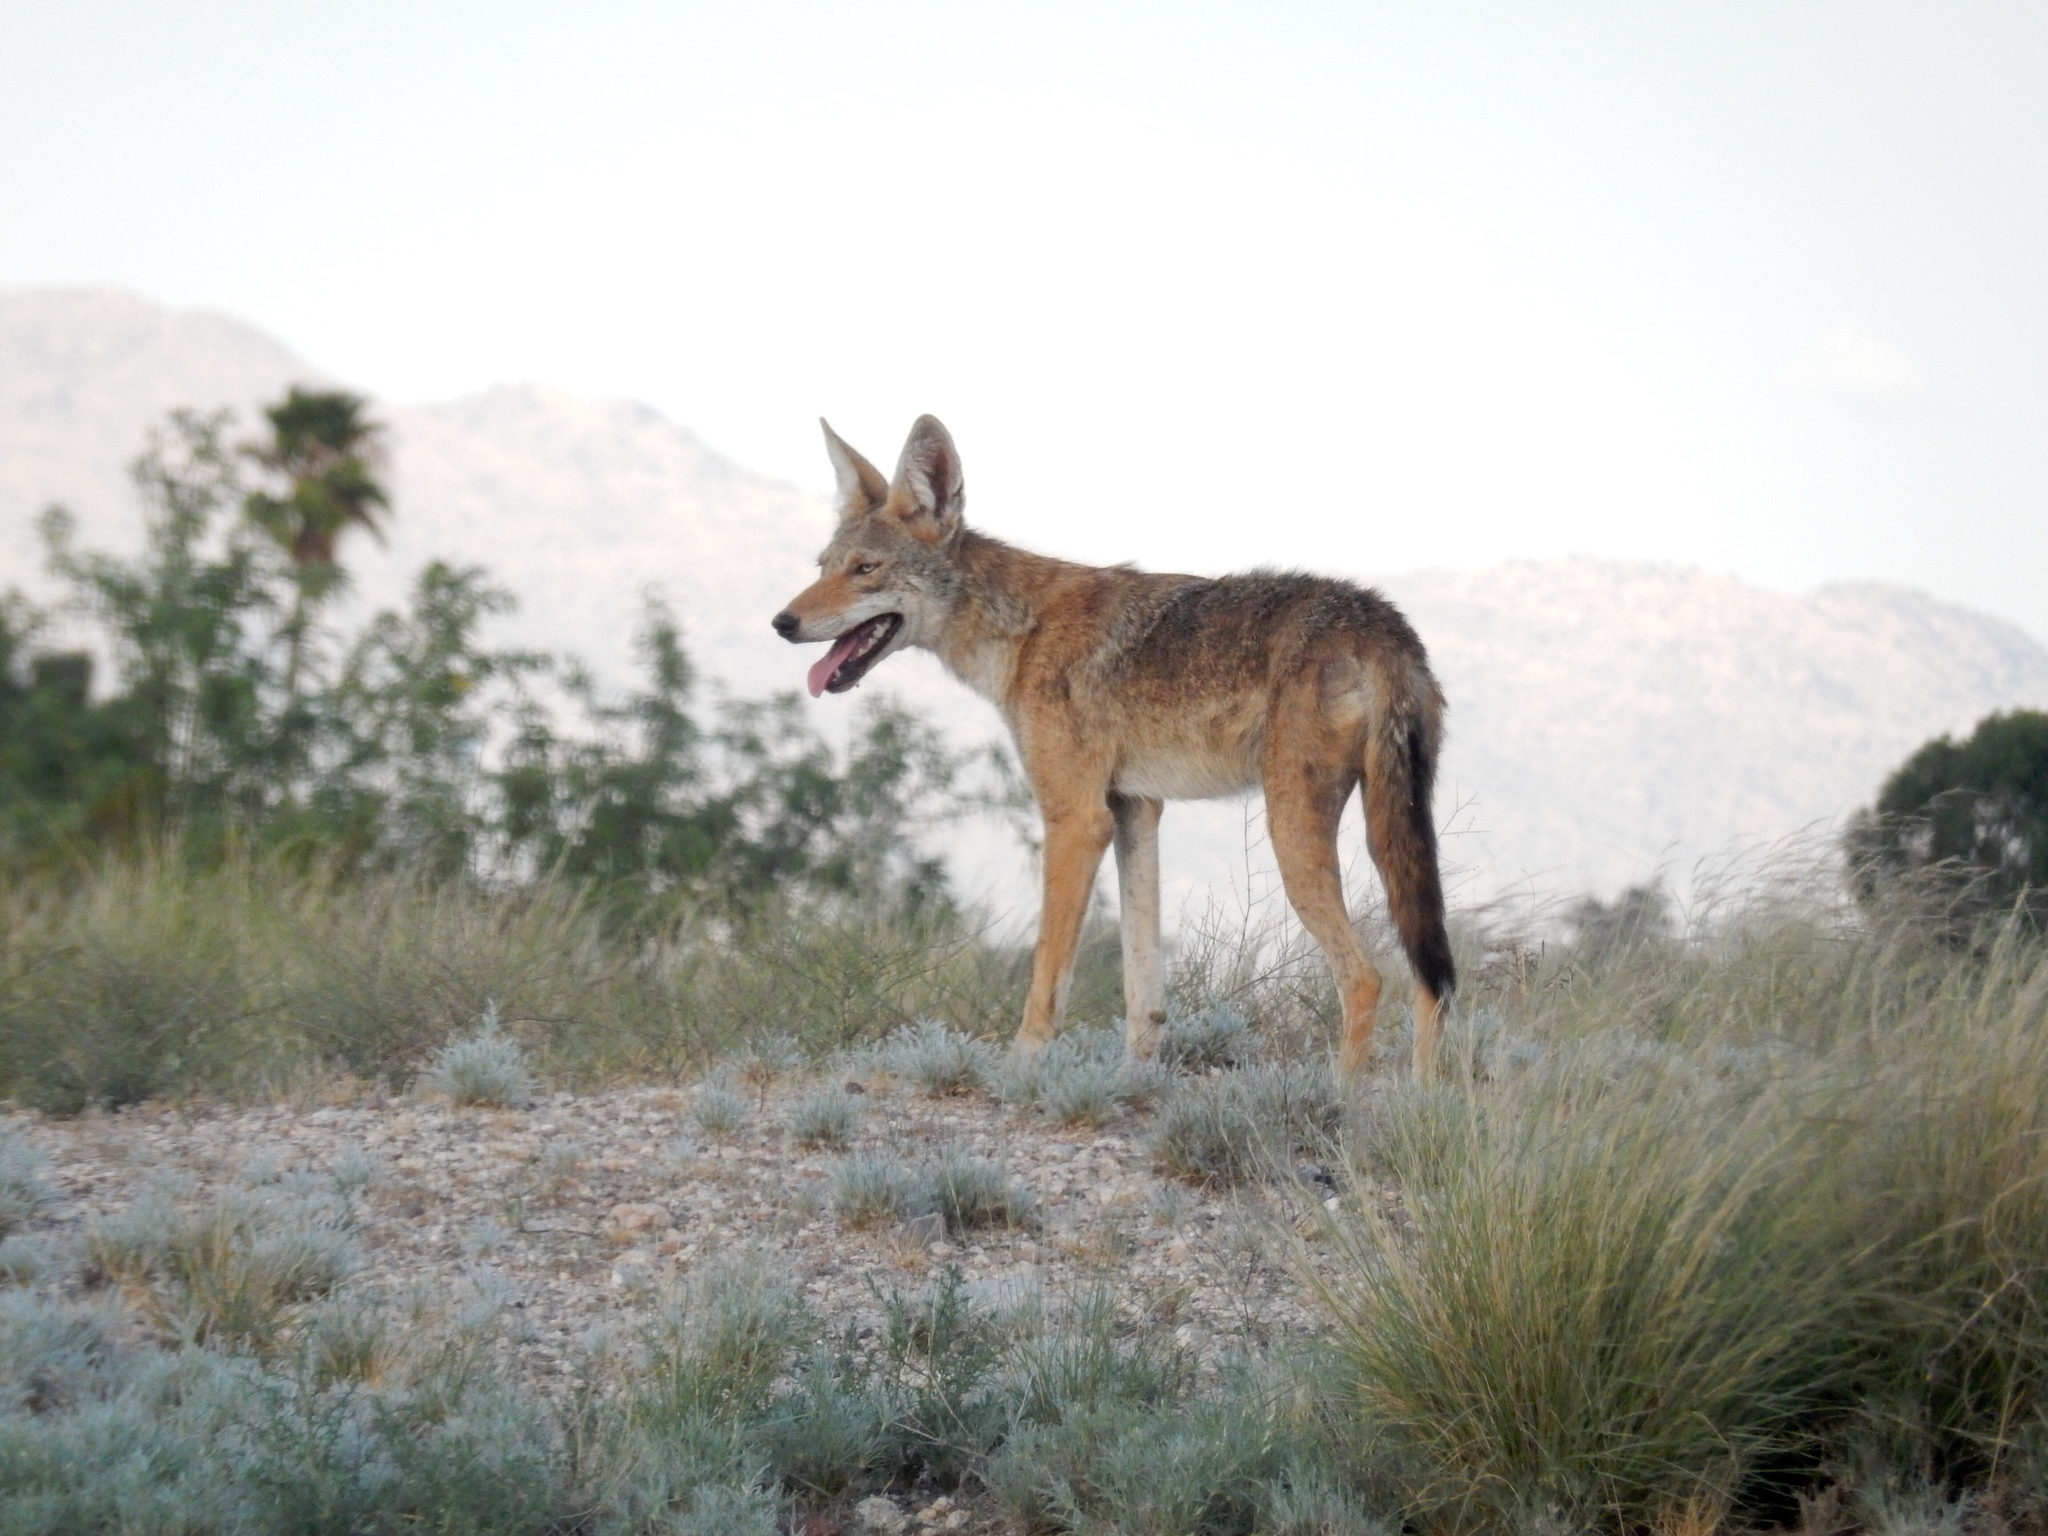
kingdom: Animalia
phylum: Chordata
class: Mammalia
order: Carnivora
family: Canidae
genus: Canis
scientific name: Canis latrans
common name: Coyote
